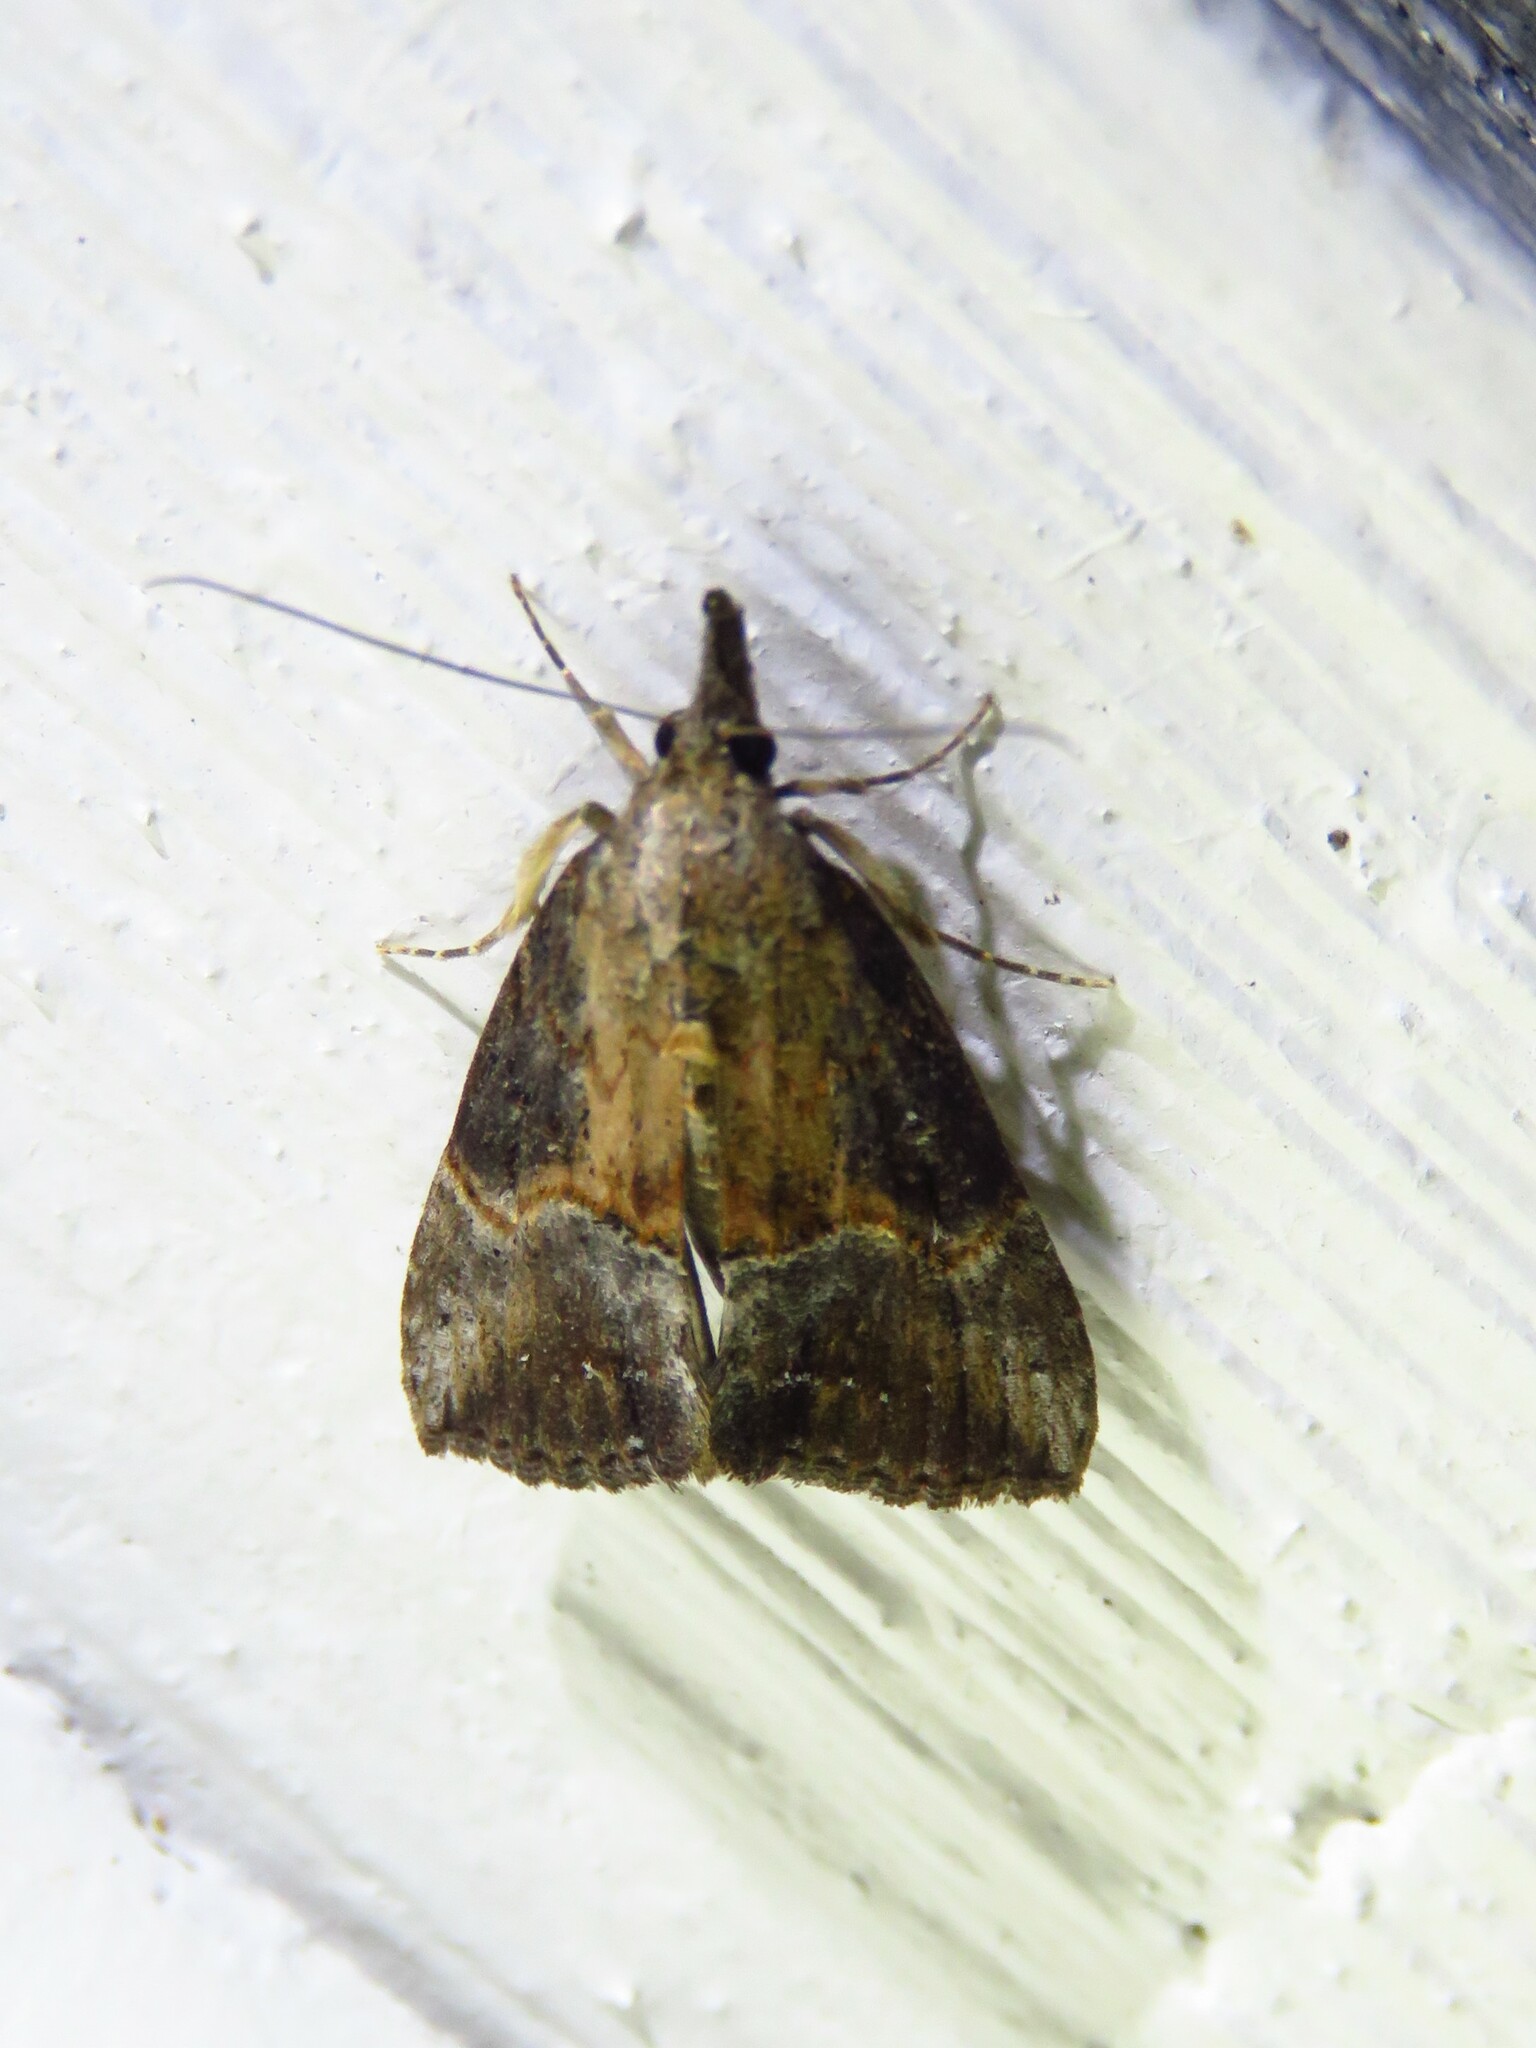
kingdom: Animalia
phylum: Arthropoda
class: Insecta
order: Lepidoptera
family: Erebidae
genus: Hypena
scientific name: Hypena scabra
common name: Green cloverworm
